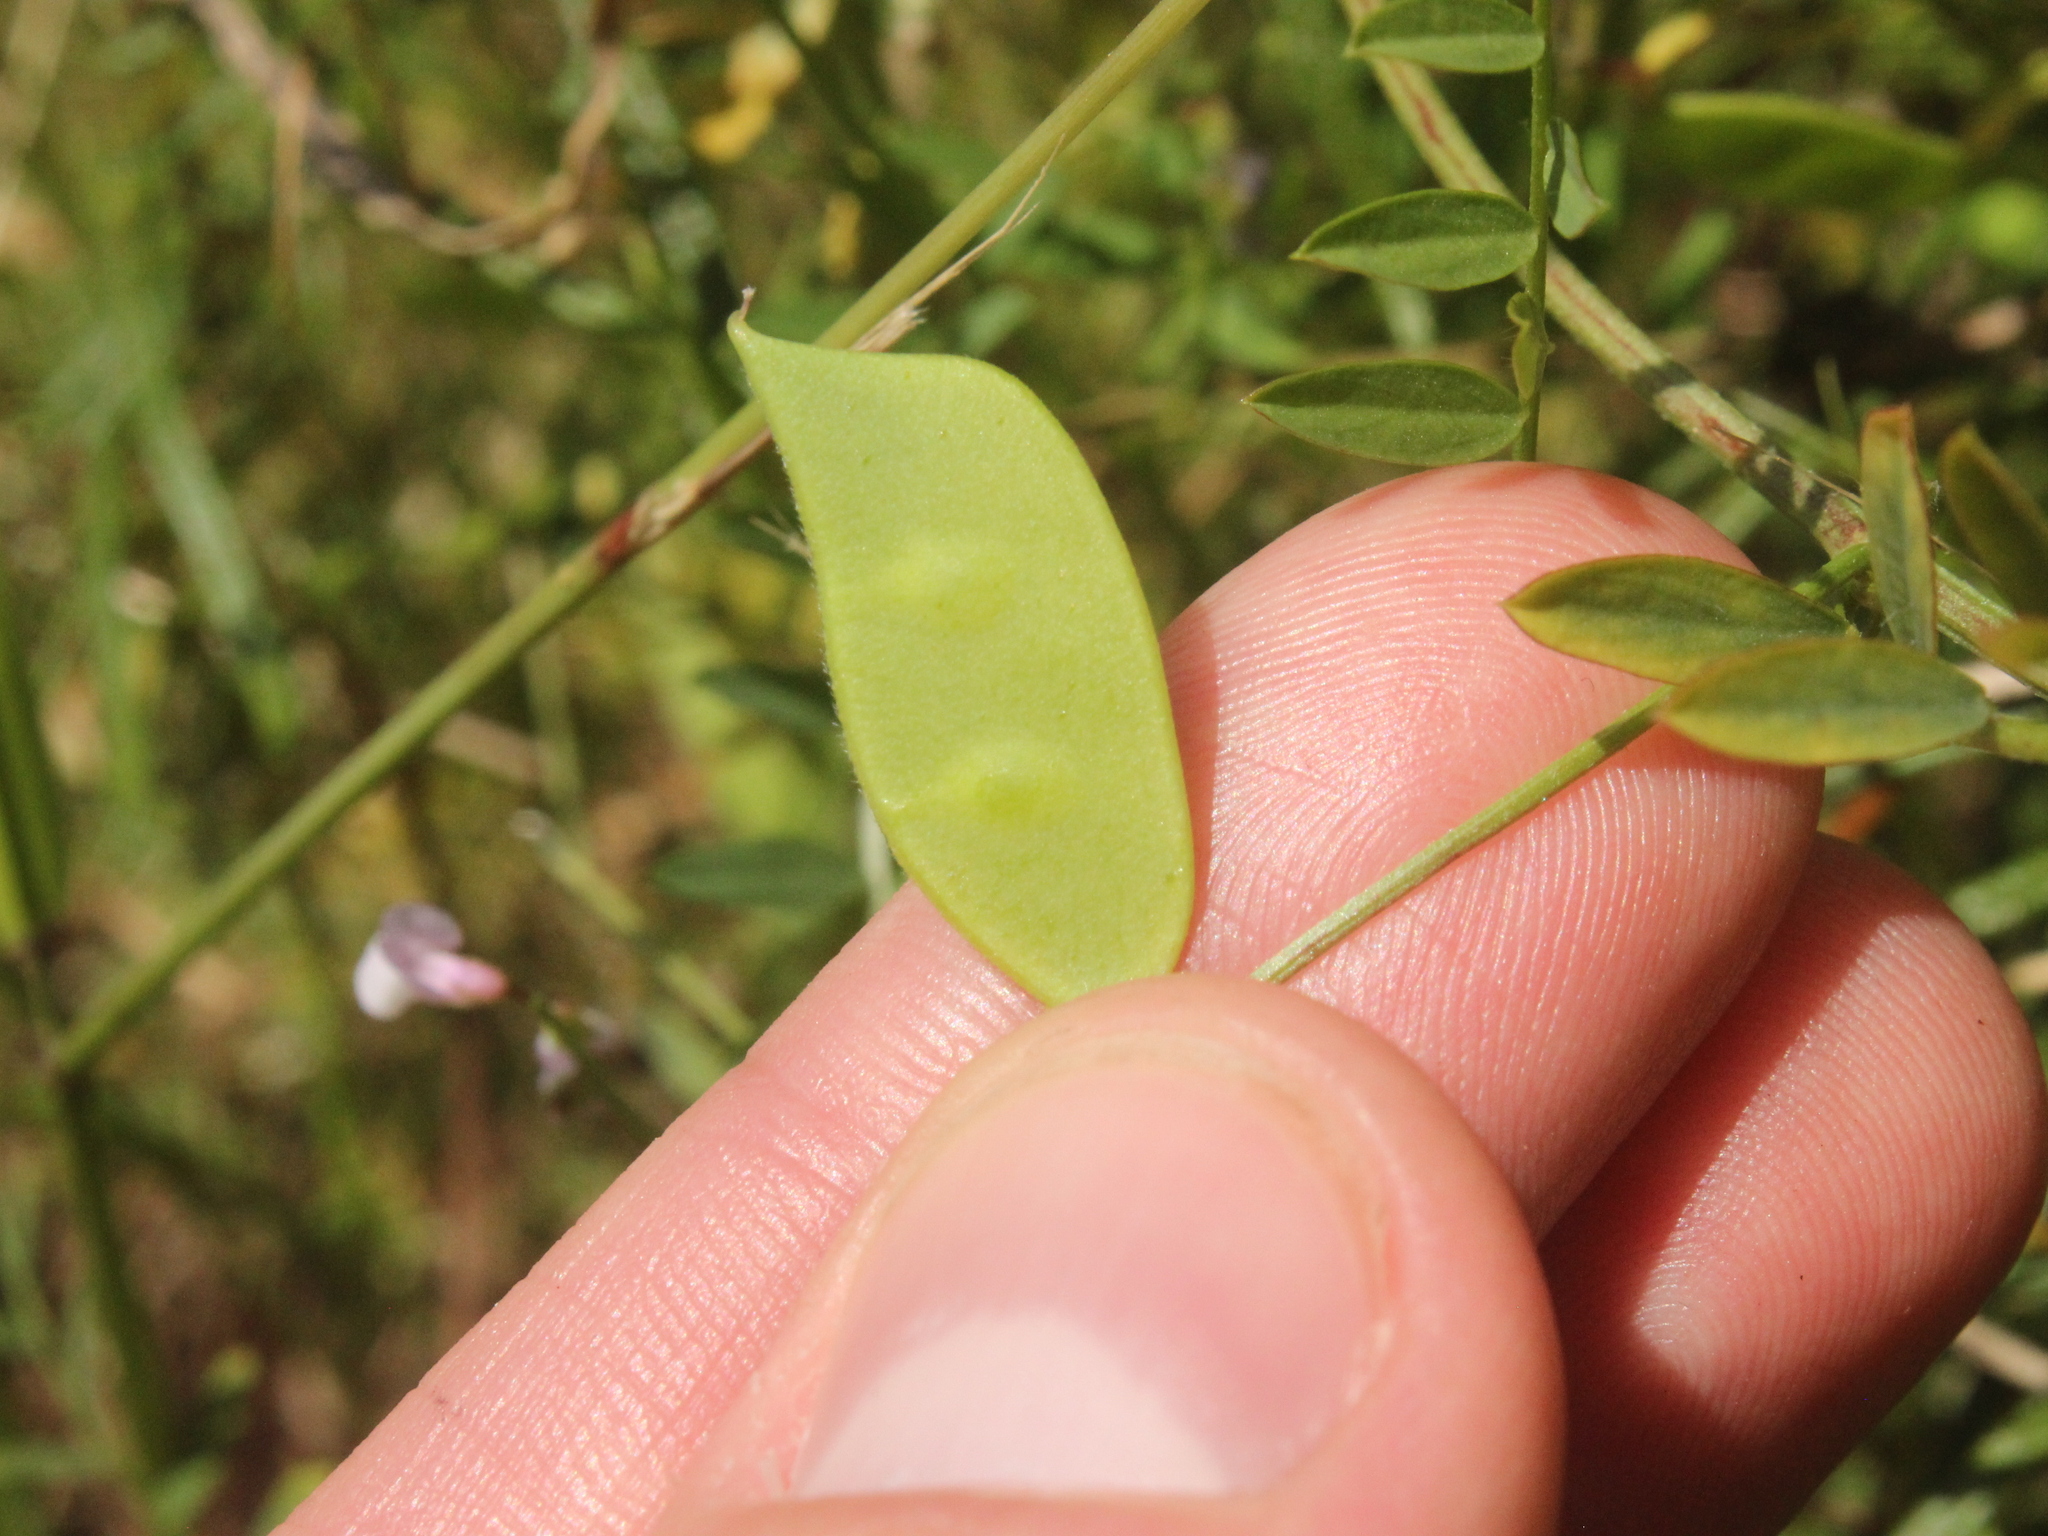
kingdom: Plantae
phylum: Tracheophyta
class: Magnoliopsida
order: Fabales
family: Fabaceae
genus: Vicia
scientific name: Vicia disperma
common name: European vetch
